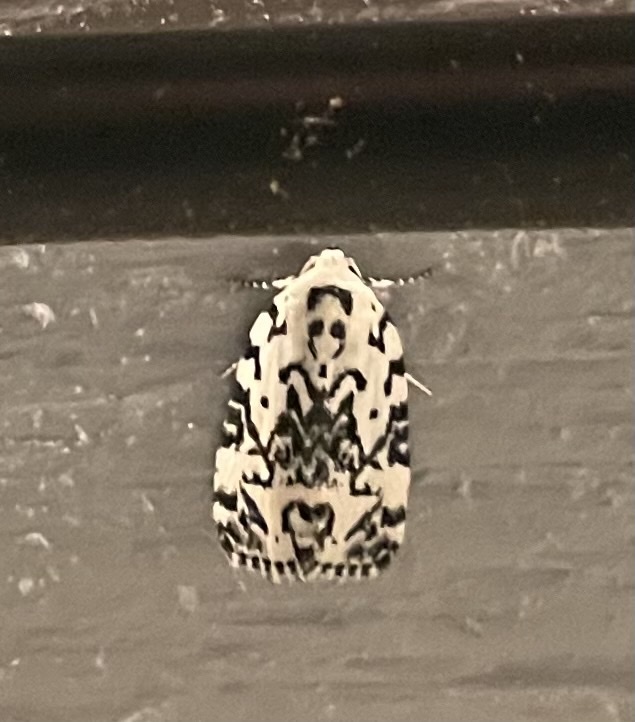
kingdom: Animalia
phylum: Arthropoda
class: Insecta
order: Lepidoptera
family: Noctuidae
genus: Polygrammate
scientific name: Polygrammate hebraeicum
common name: Hebrew moth
